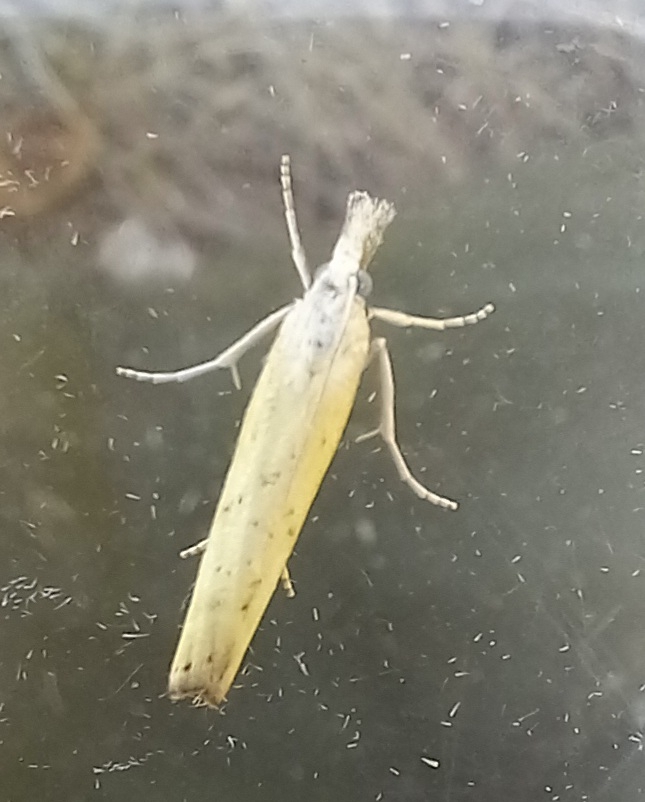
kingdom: Animalia
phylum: Arthropoda
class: Insecta
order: Lepidoptera
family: Crambidae
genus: Agriphila
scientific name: Agriphila straminella
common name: Straw grass-veneer
